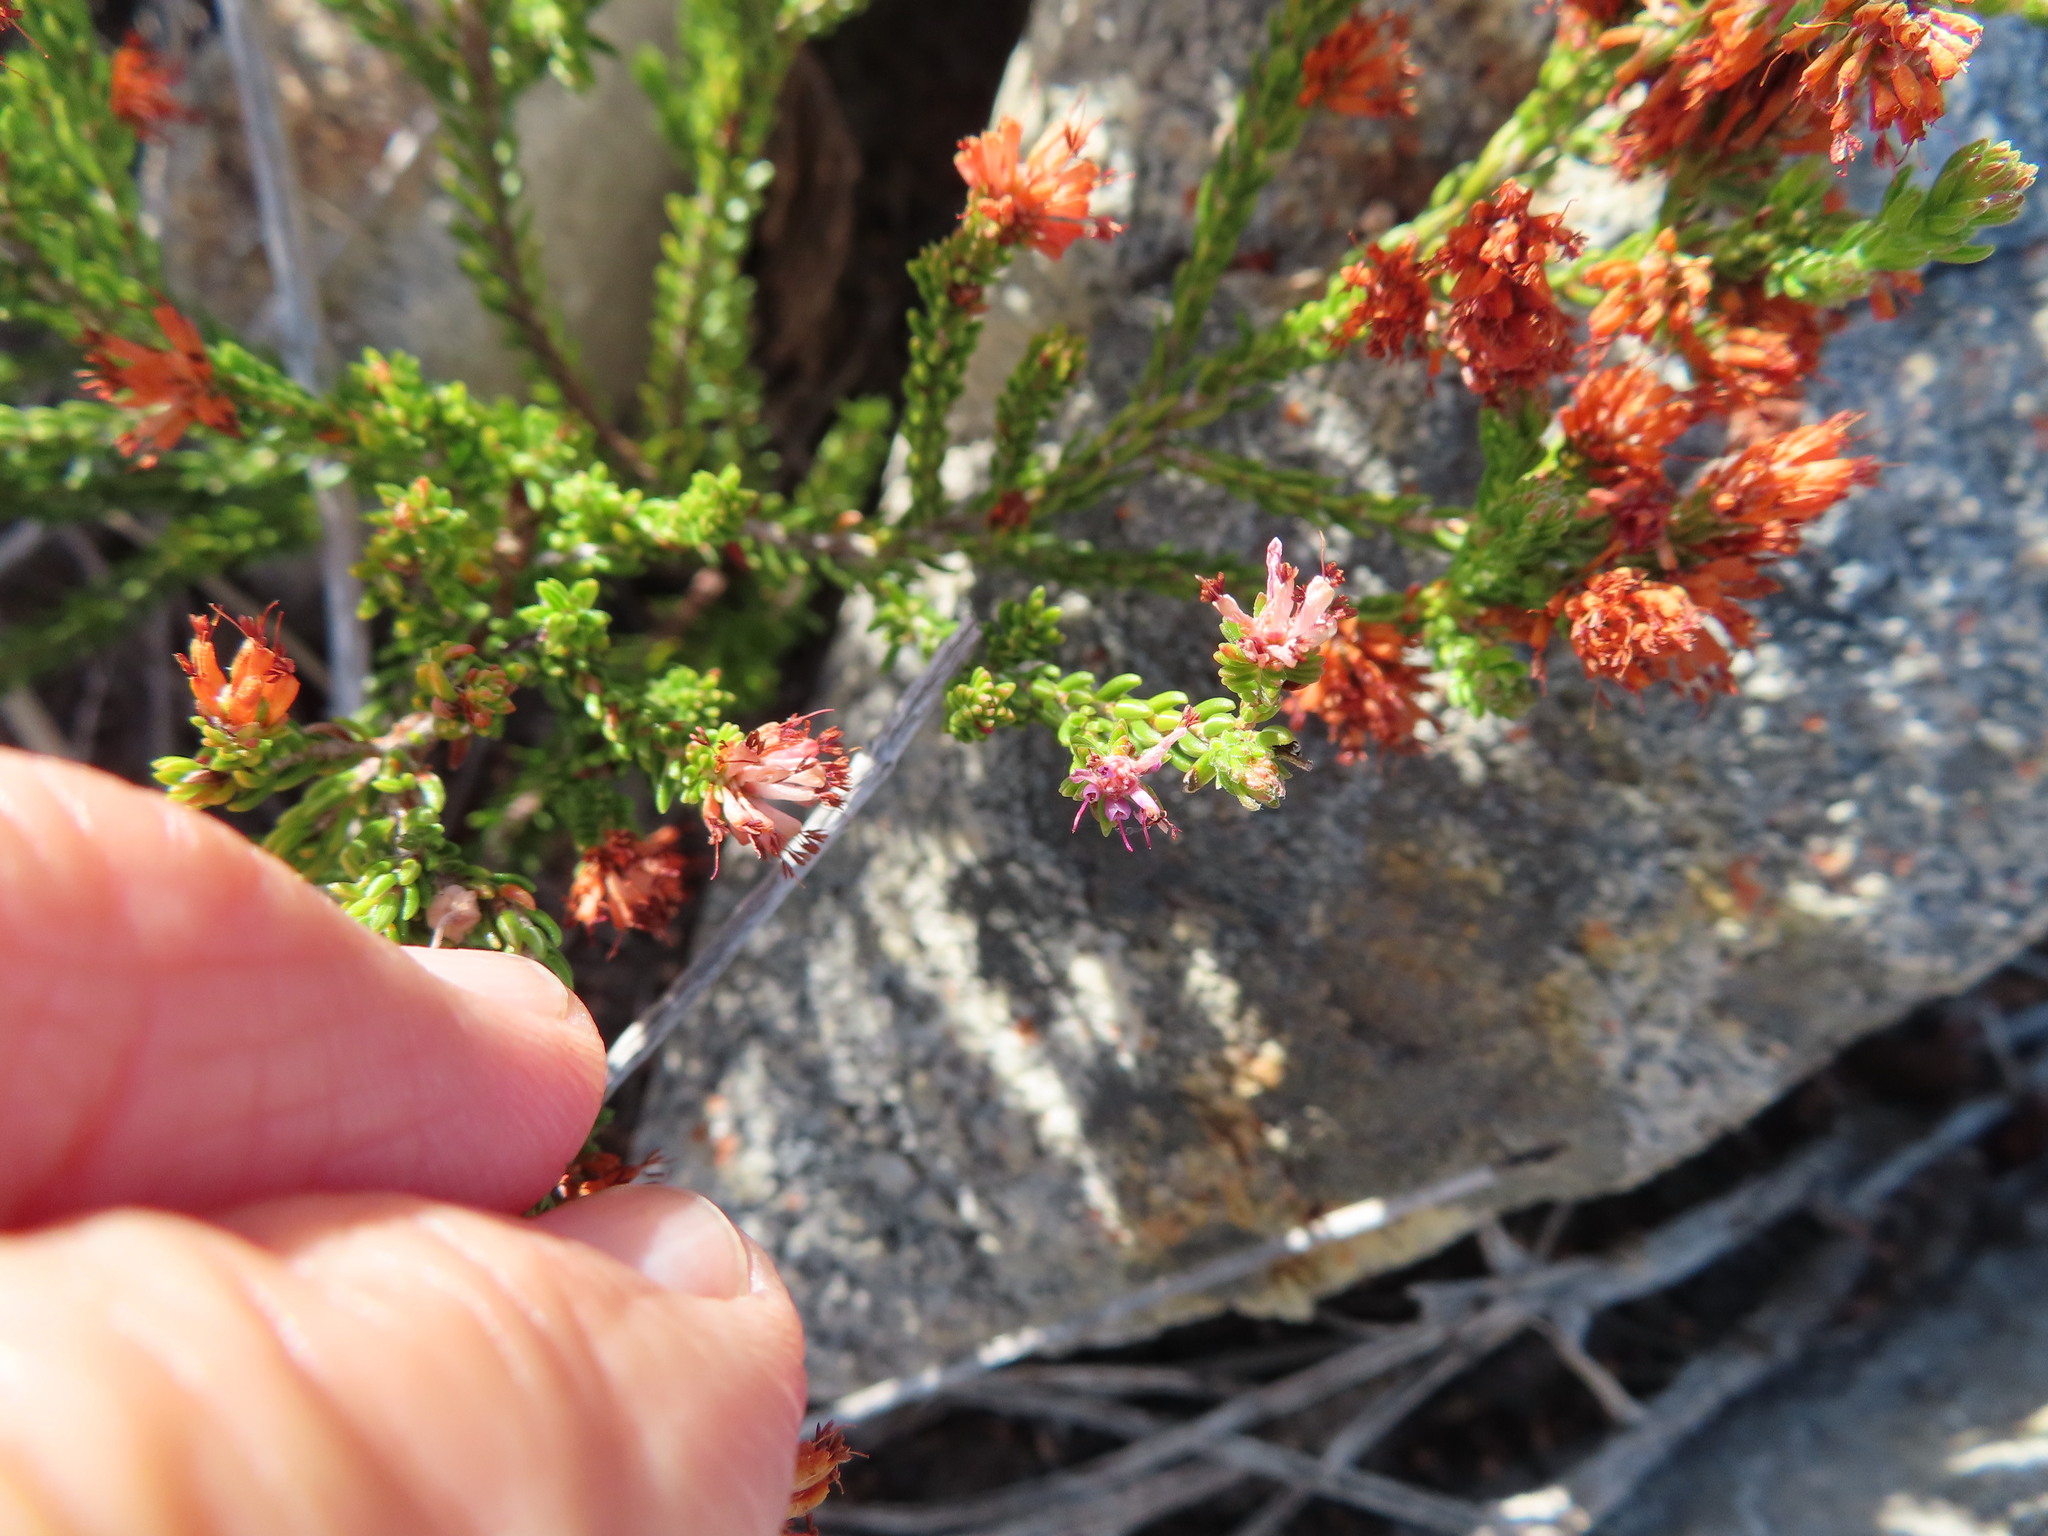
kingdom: Plantae
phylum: Tracheophyta
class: Magnoliopsida
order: Ericales
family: Ericaceae
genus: Erica
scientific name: Erica labialis
